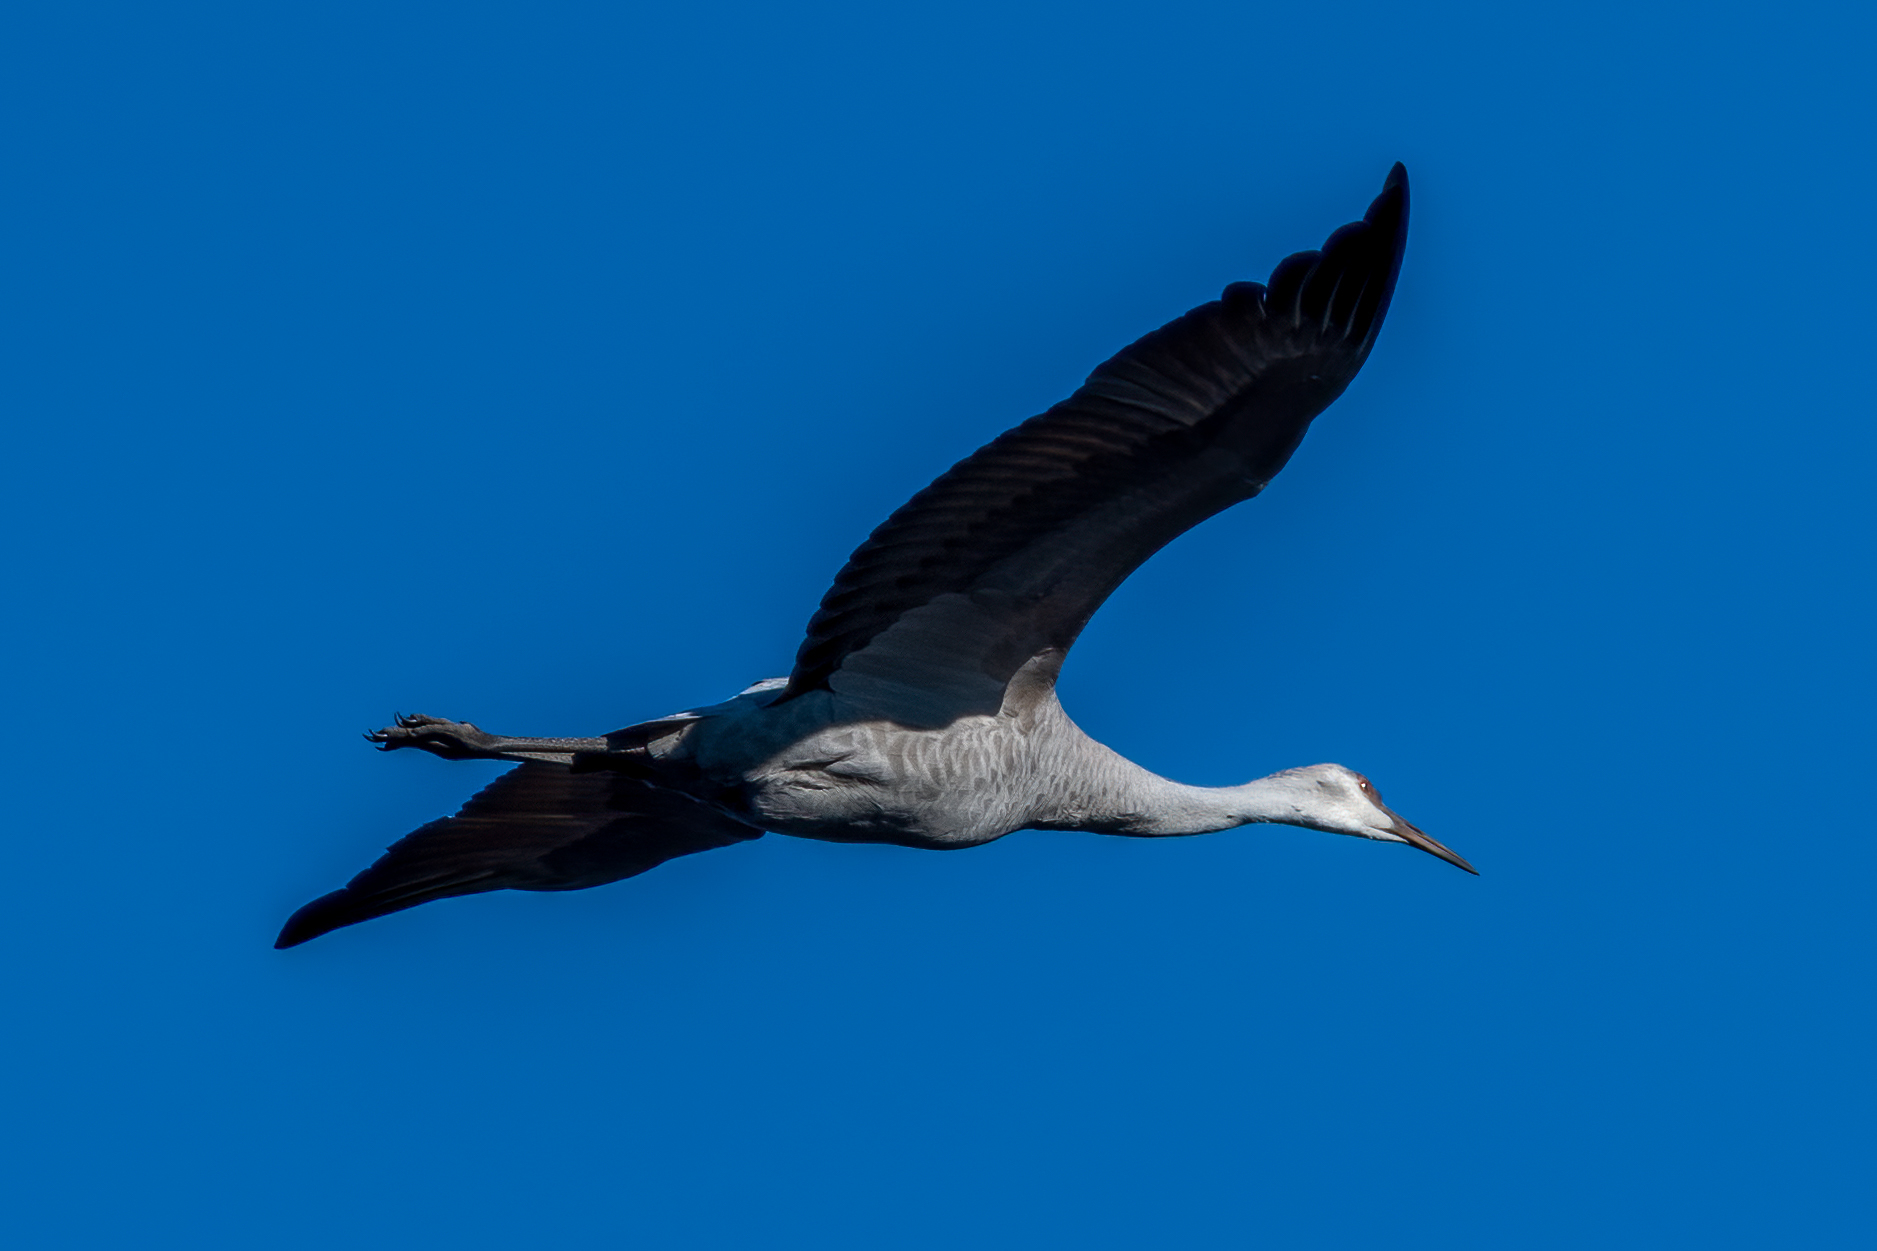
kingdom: Animalia
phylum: Chordata
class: Aves
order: Gruiformes
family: Gruidae
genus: Grus
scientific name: Grus canadensis
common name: Sandhill crane
